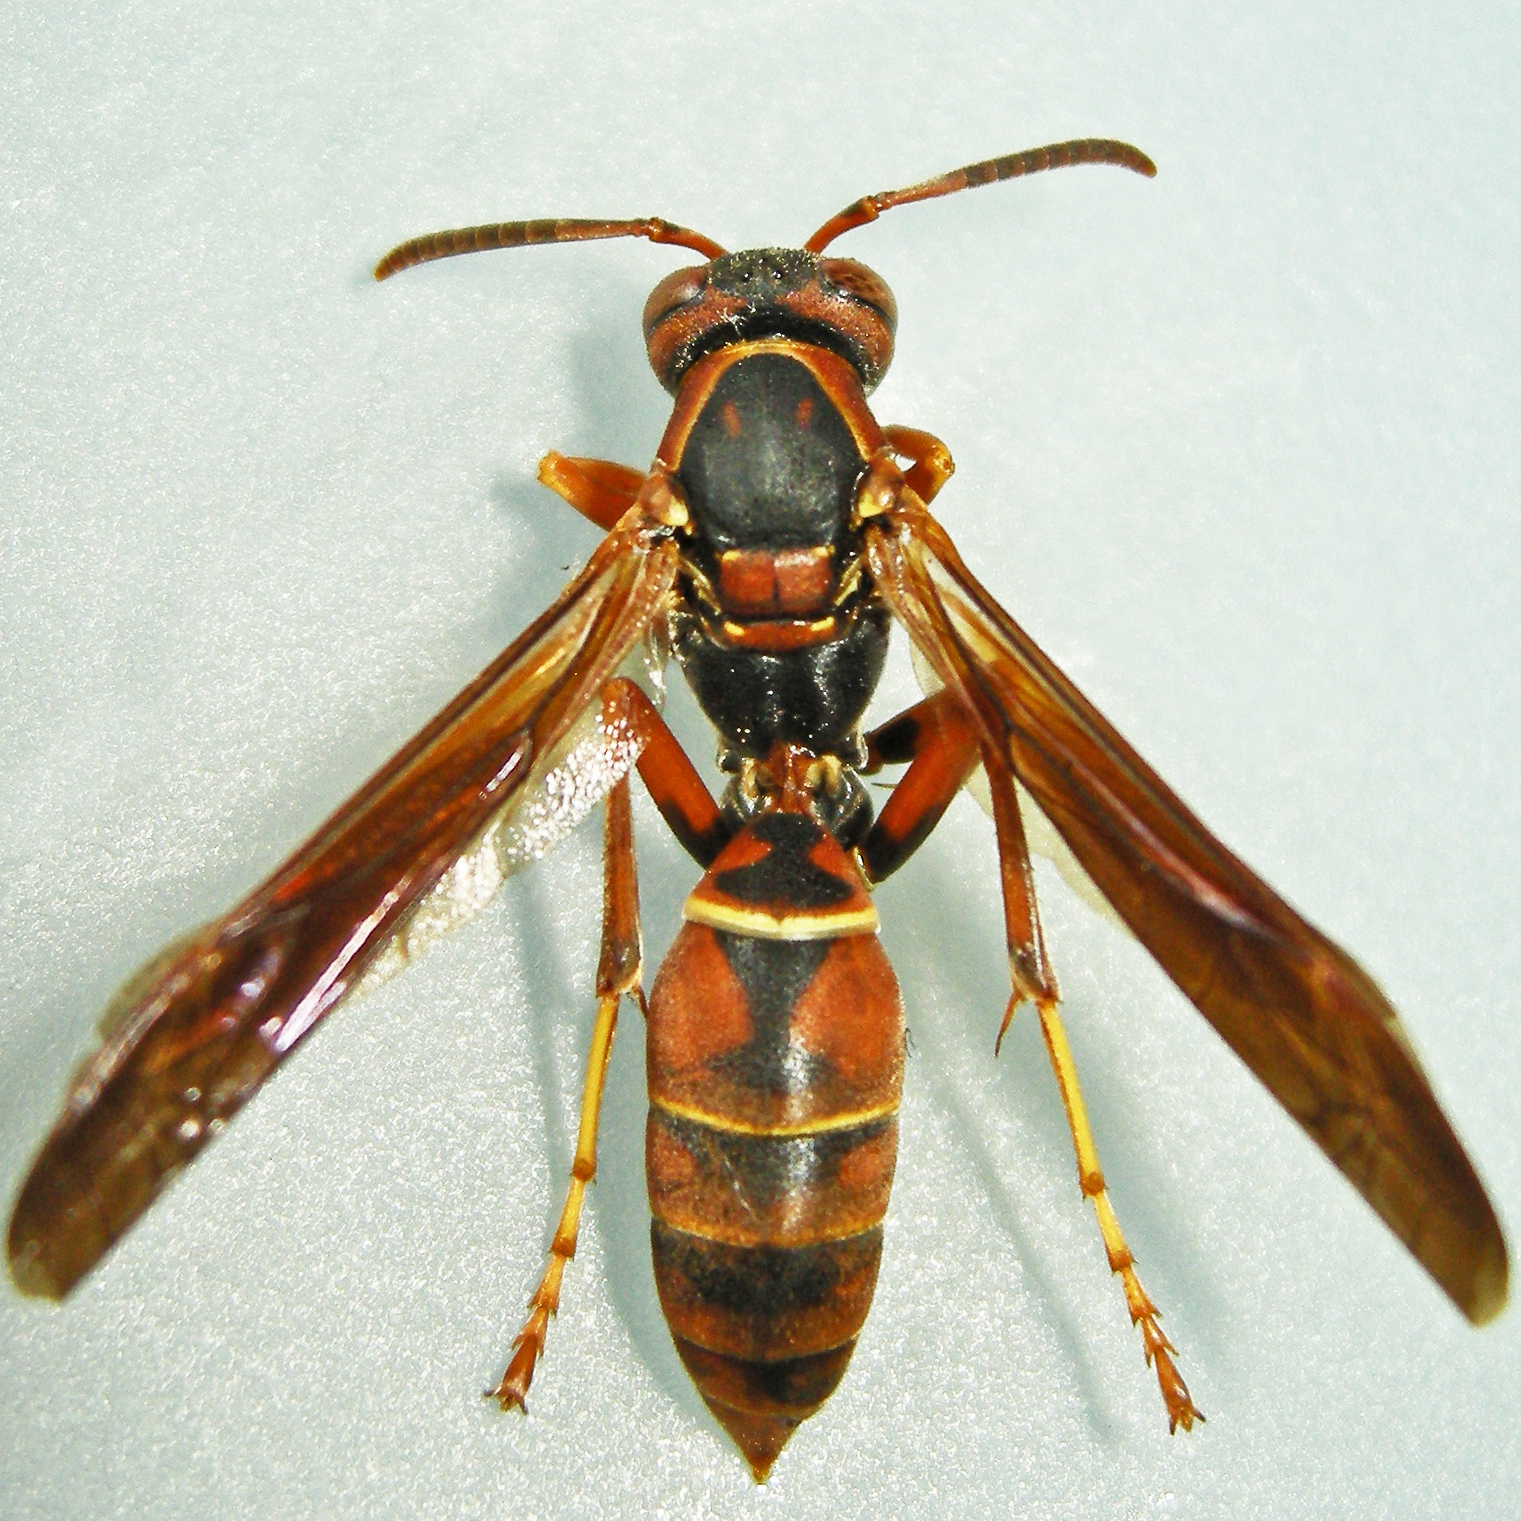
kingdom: Animalia
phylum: Arthropoda
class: Insecta
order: Hymenoptera
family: Eumenidae
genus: Polistes
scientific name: Polistes fuscatus
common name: Dark paper wasp
